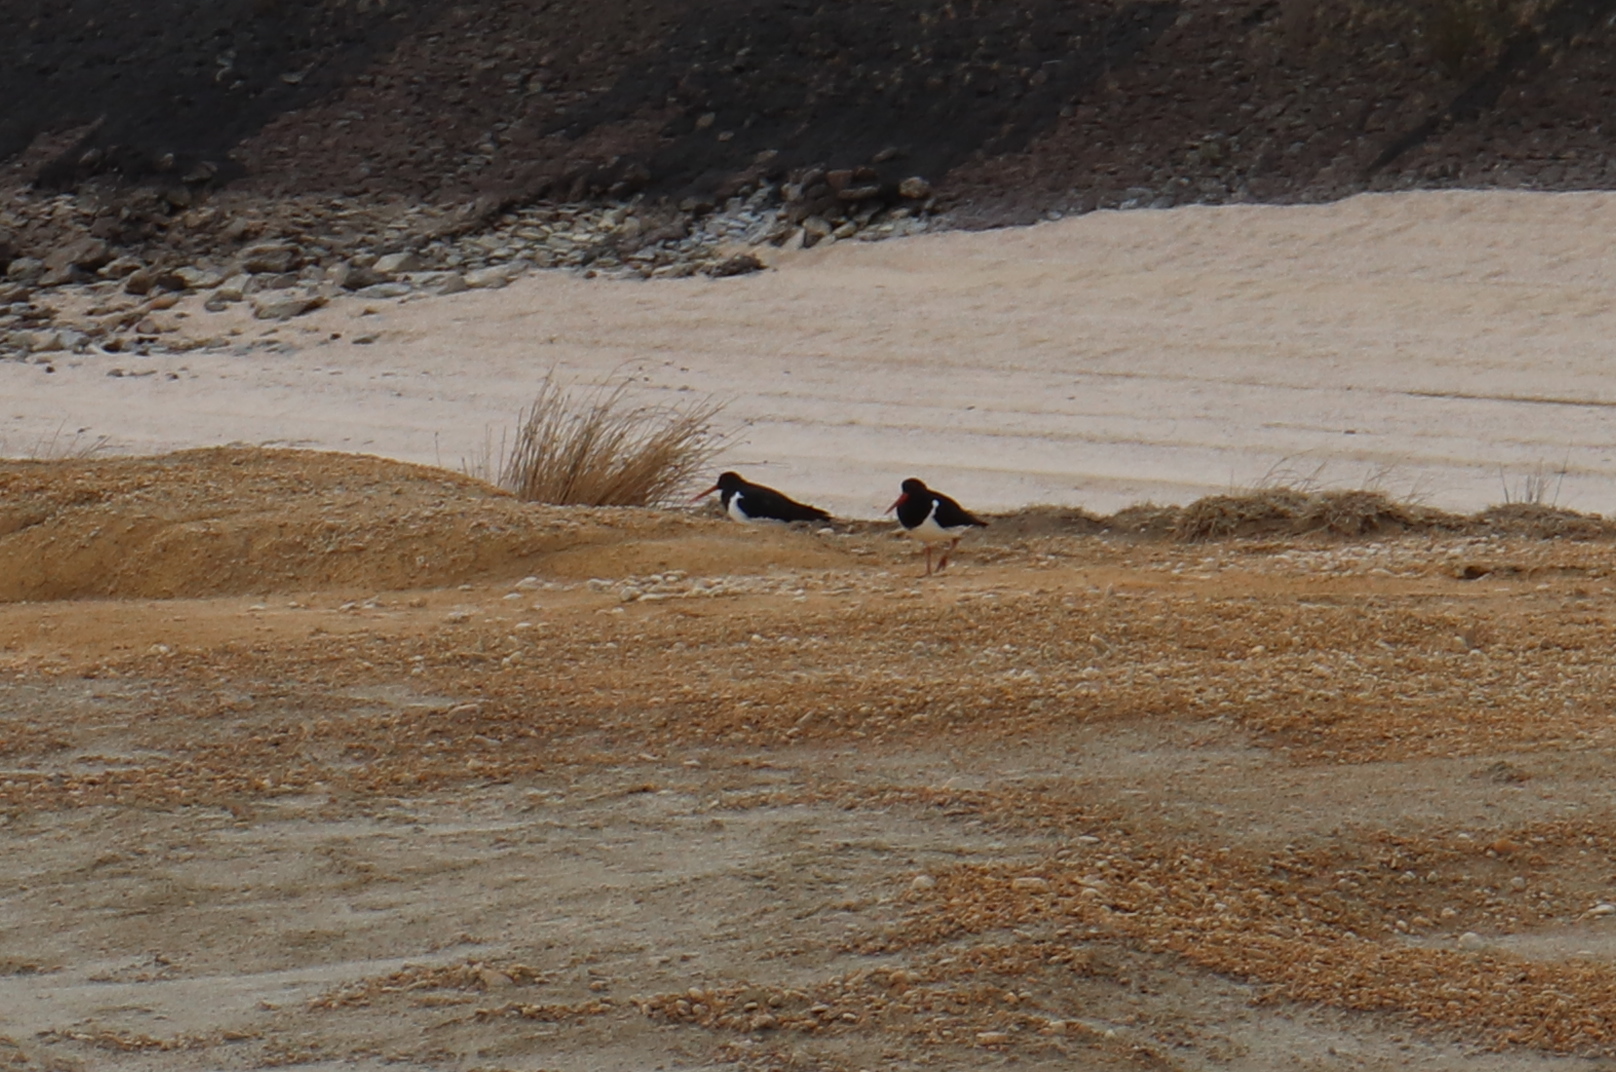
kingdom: Animalia
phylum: Chordata
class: Aves
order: Charadriiformes
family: Haematopodidae
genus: Haematopus
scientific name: Haematopus finschi
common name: South island oystercatcher
